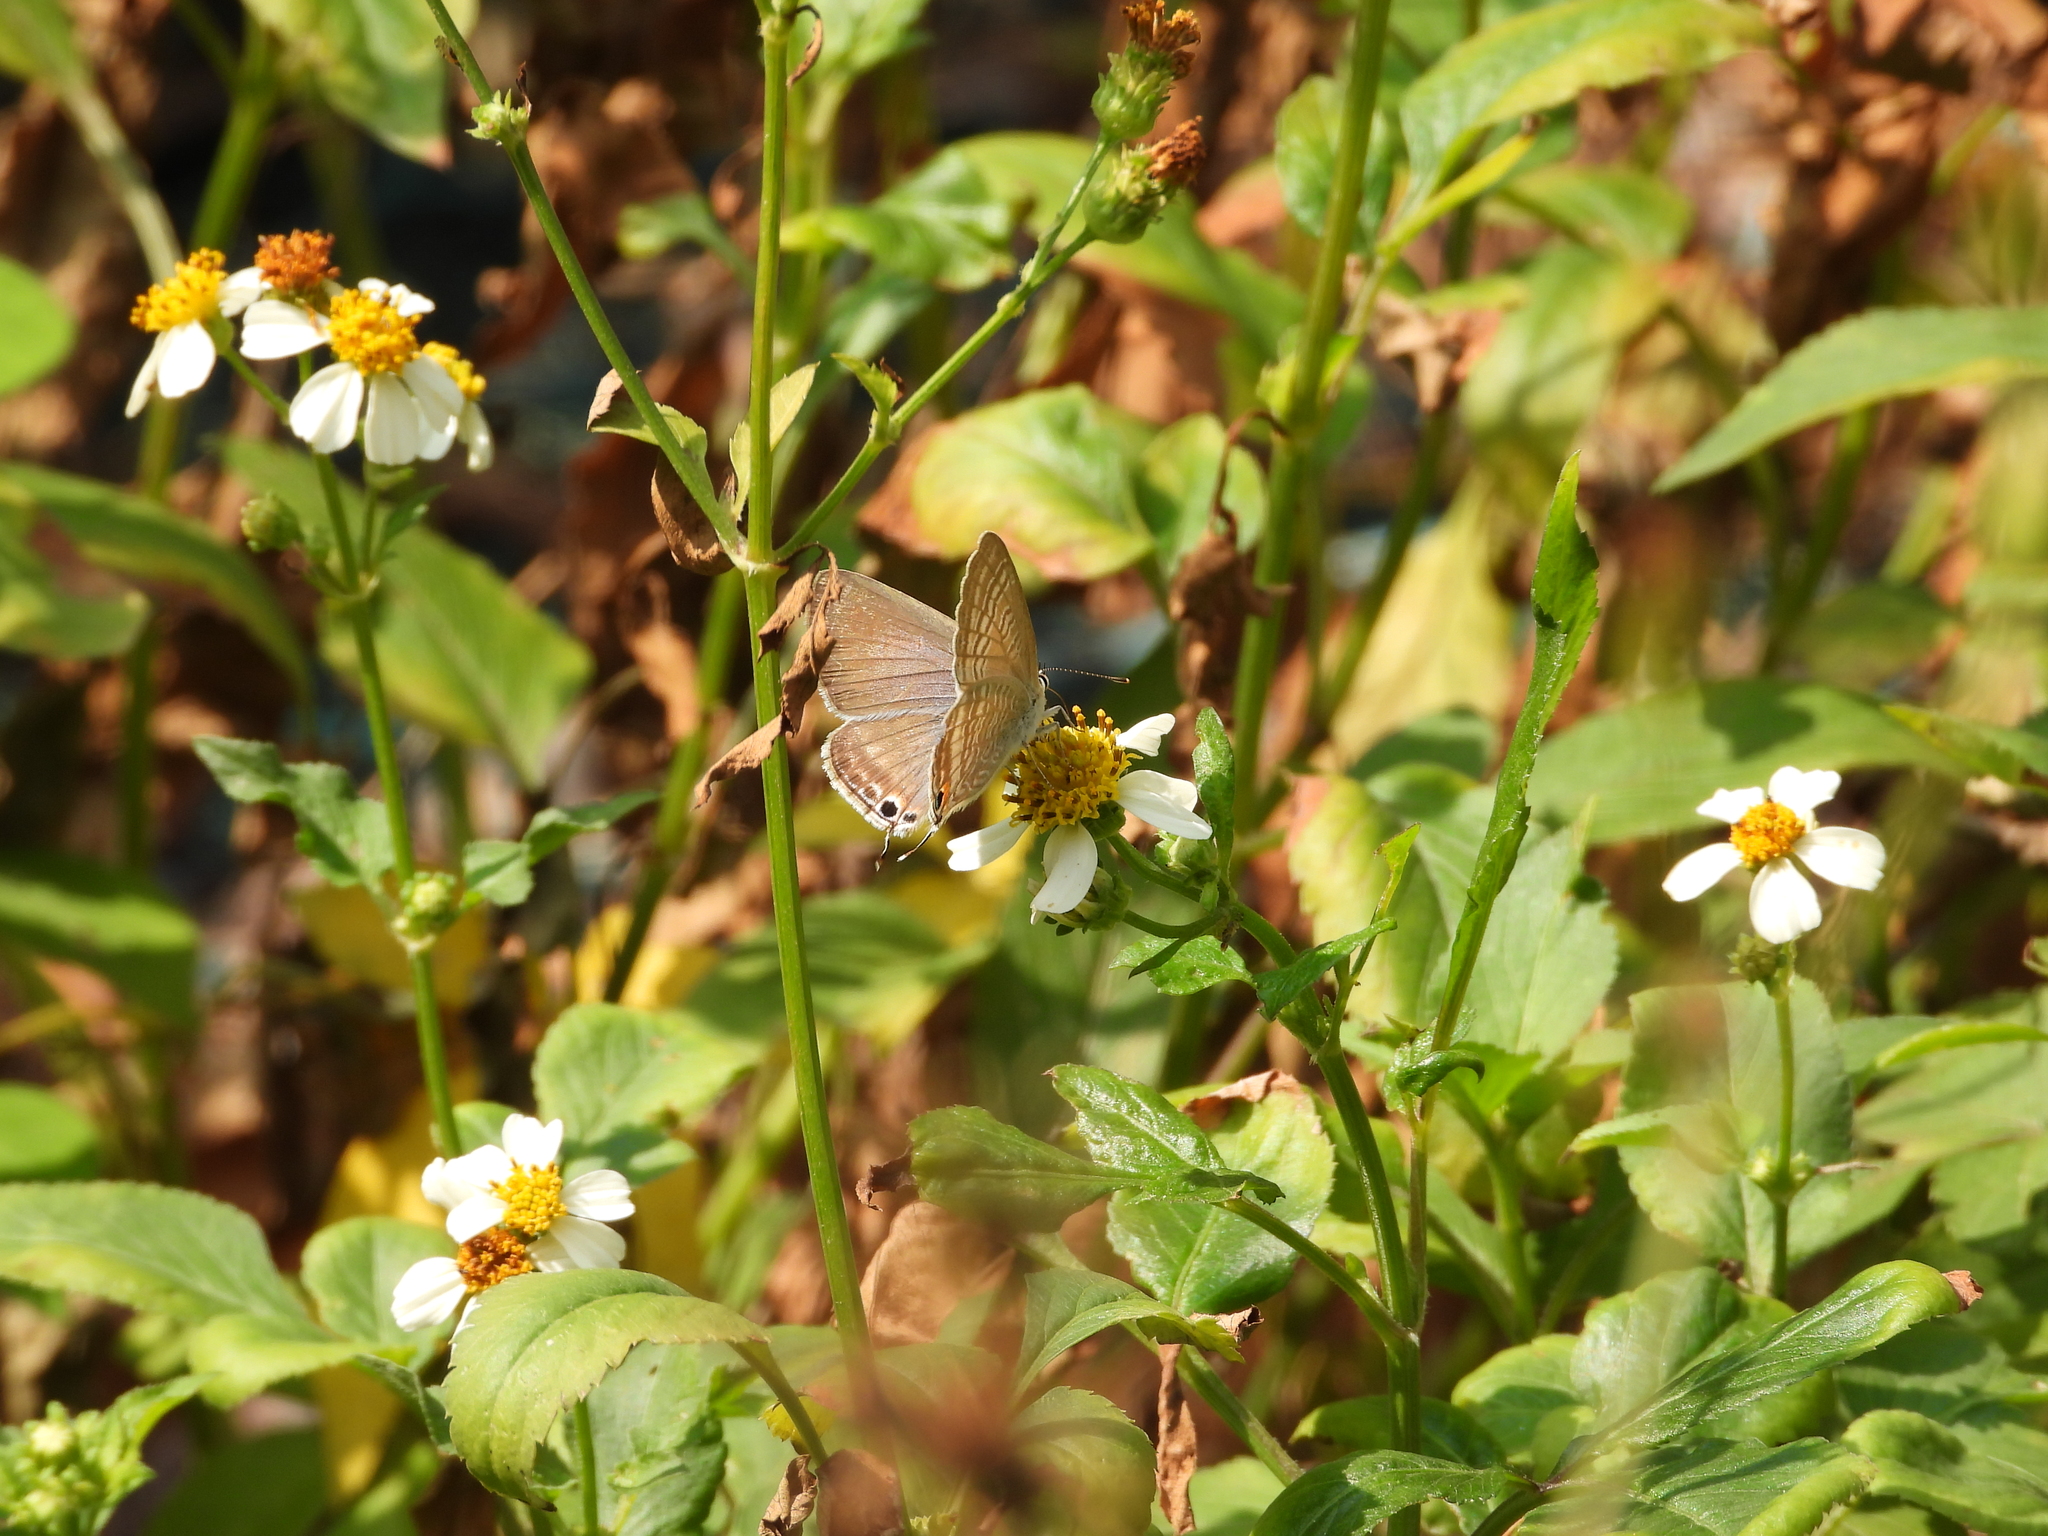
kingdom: Animalia
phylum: Arthropoda
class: Insecta
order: Lepidoptera
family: Lycaenidae
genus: Lampides
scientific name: Lampides boeticus
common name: Long-tailed blue
